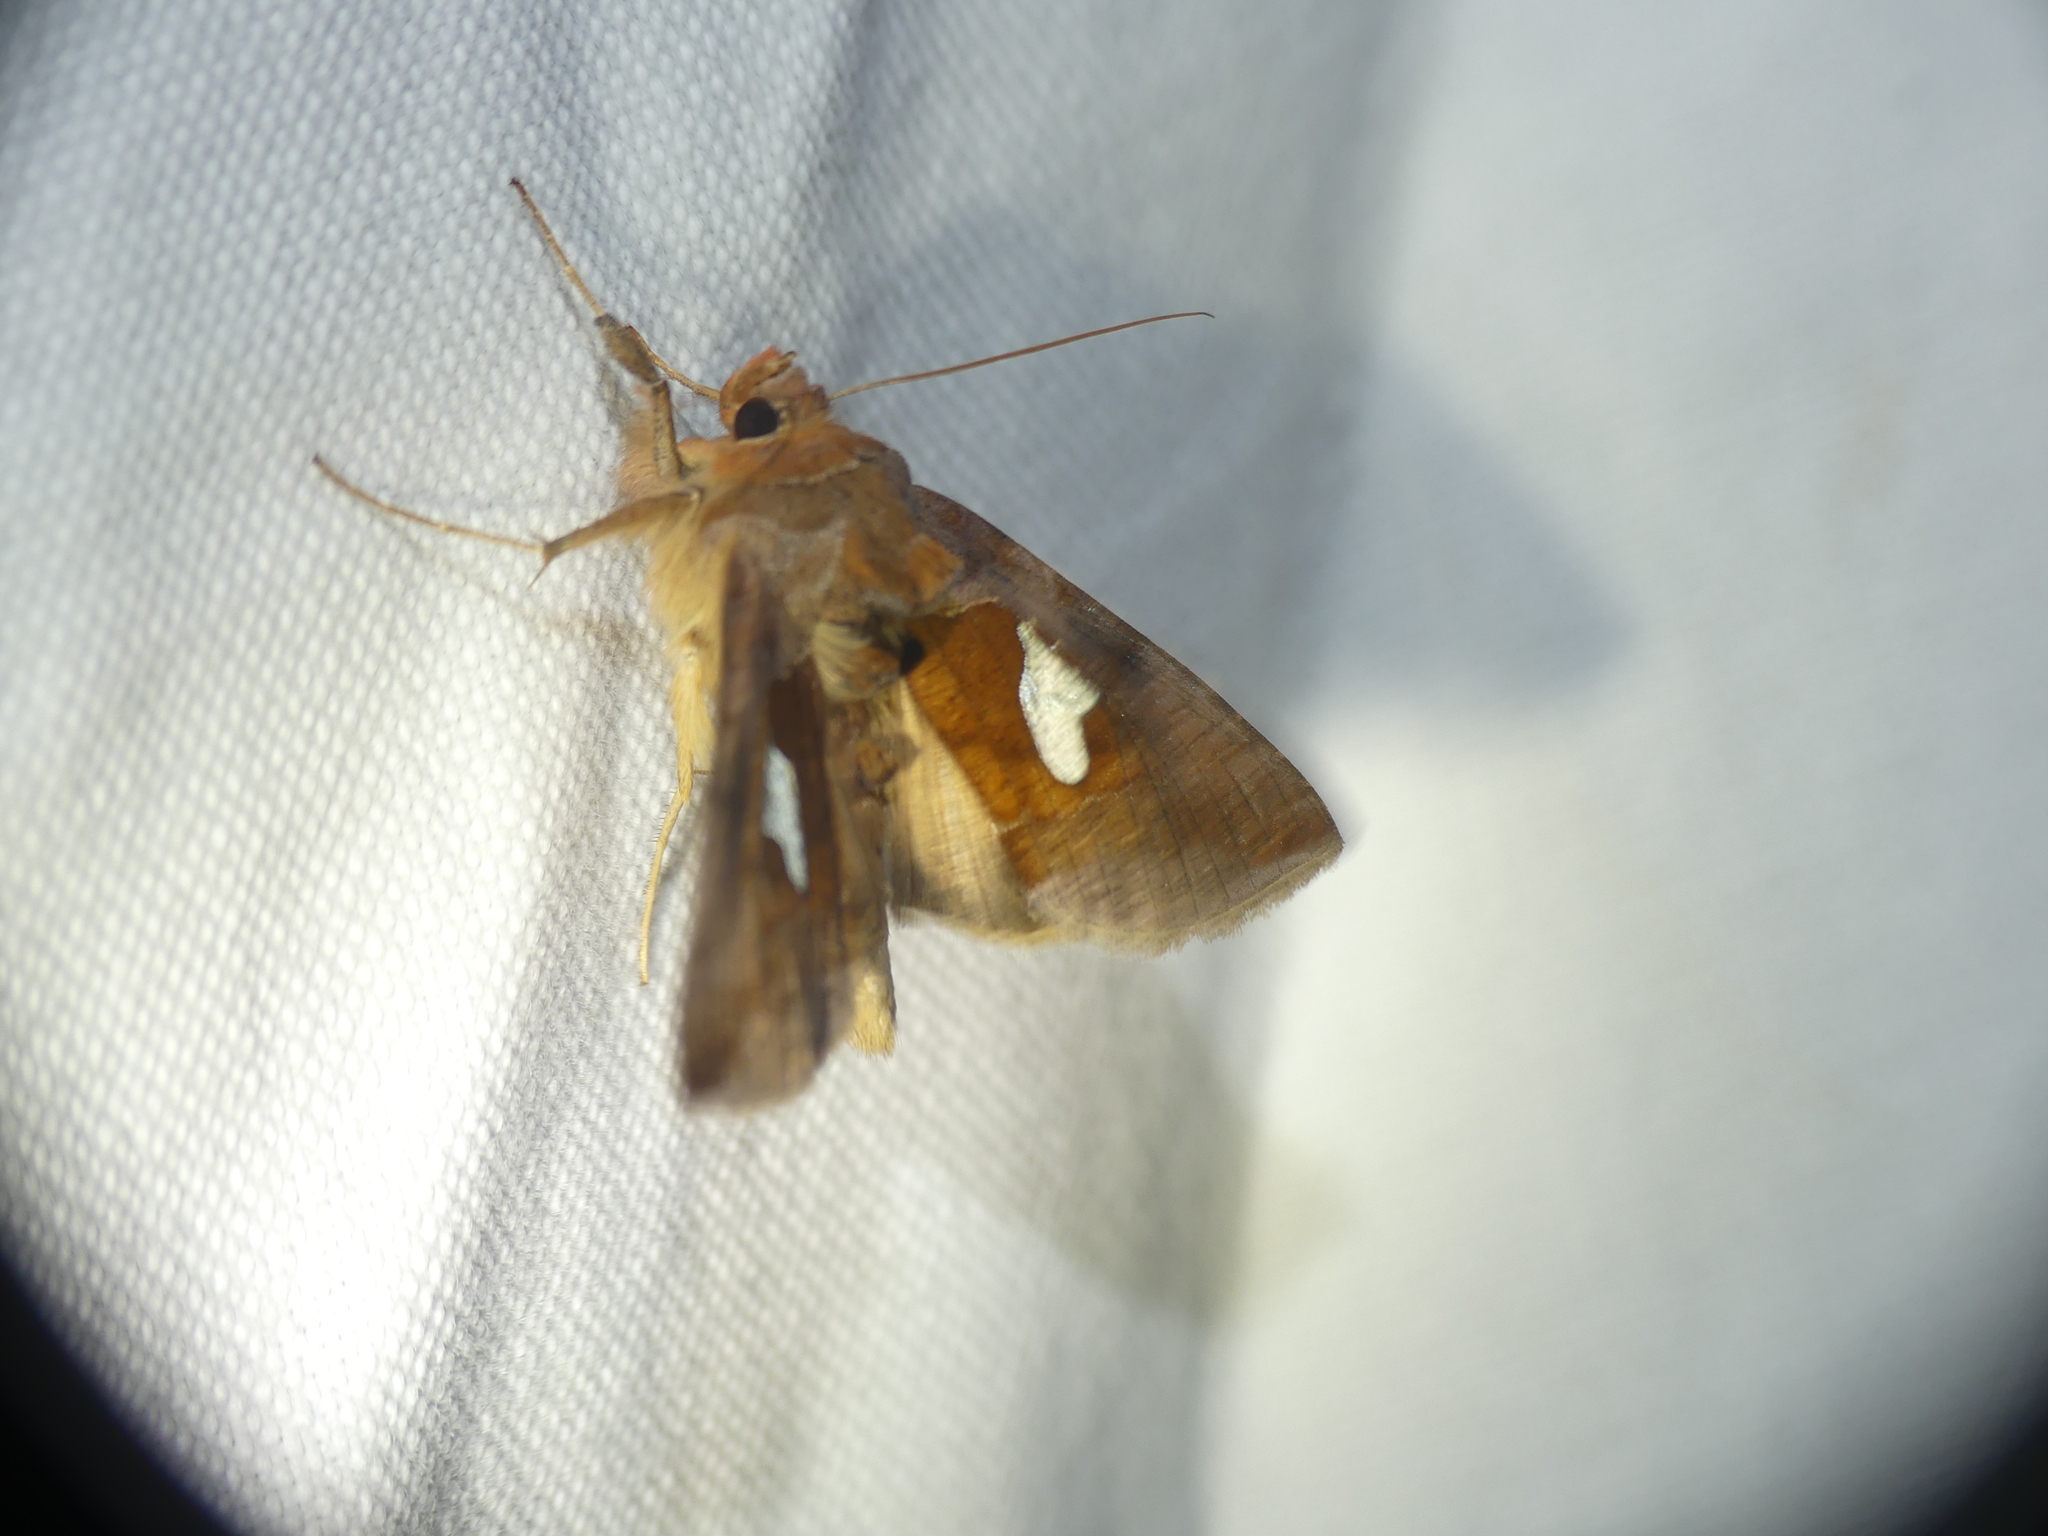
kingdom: Animalia
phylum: Arthropoda
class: Insecta
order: Lepidoptera
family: Noctuidae
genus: Autographa
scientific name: Autographa bractea
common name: Gold spangle
